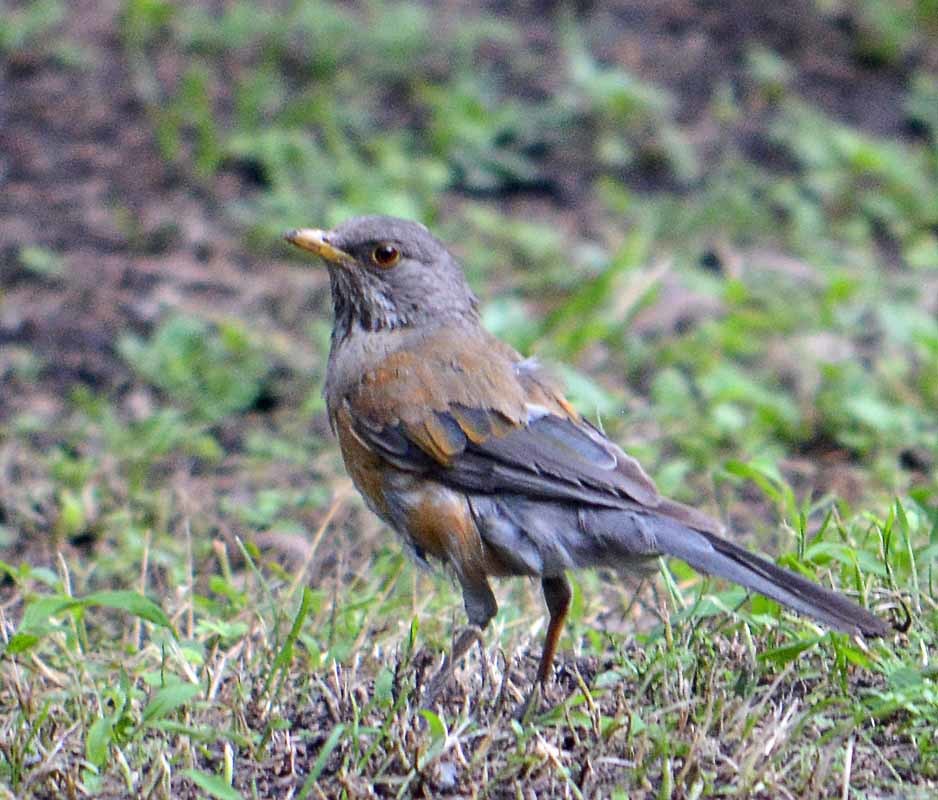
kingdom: Animalia
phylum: Chordata
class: Aves
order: Passeriformes
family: Turdidae
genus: Turdus
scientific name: Turdus rufopalliatus
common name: Rufous-backed robin
